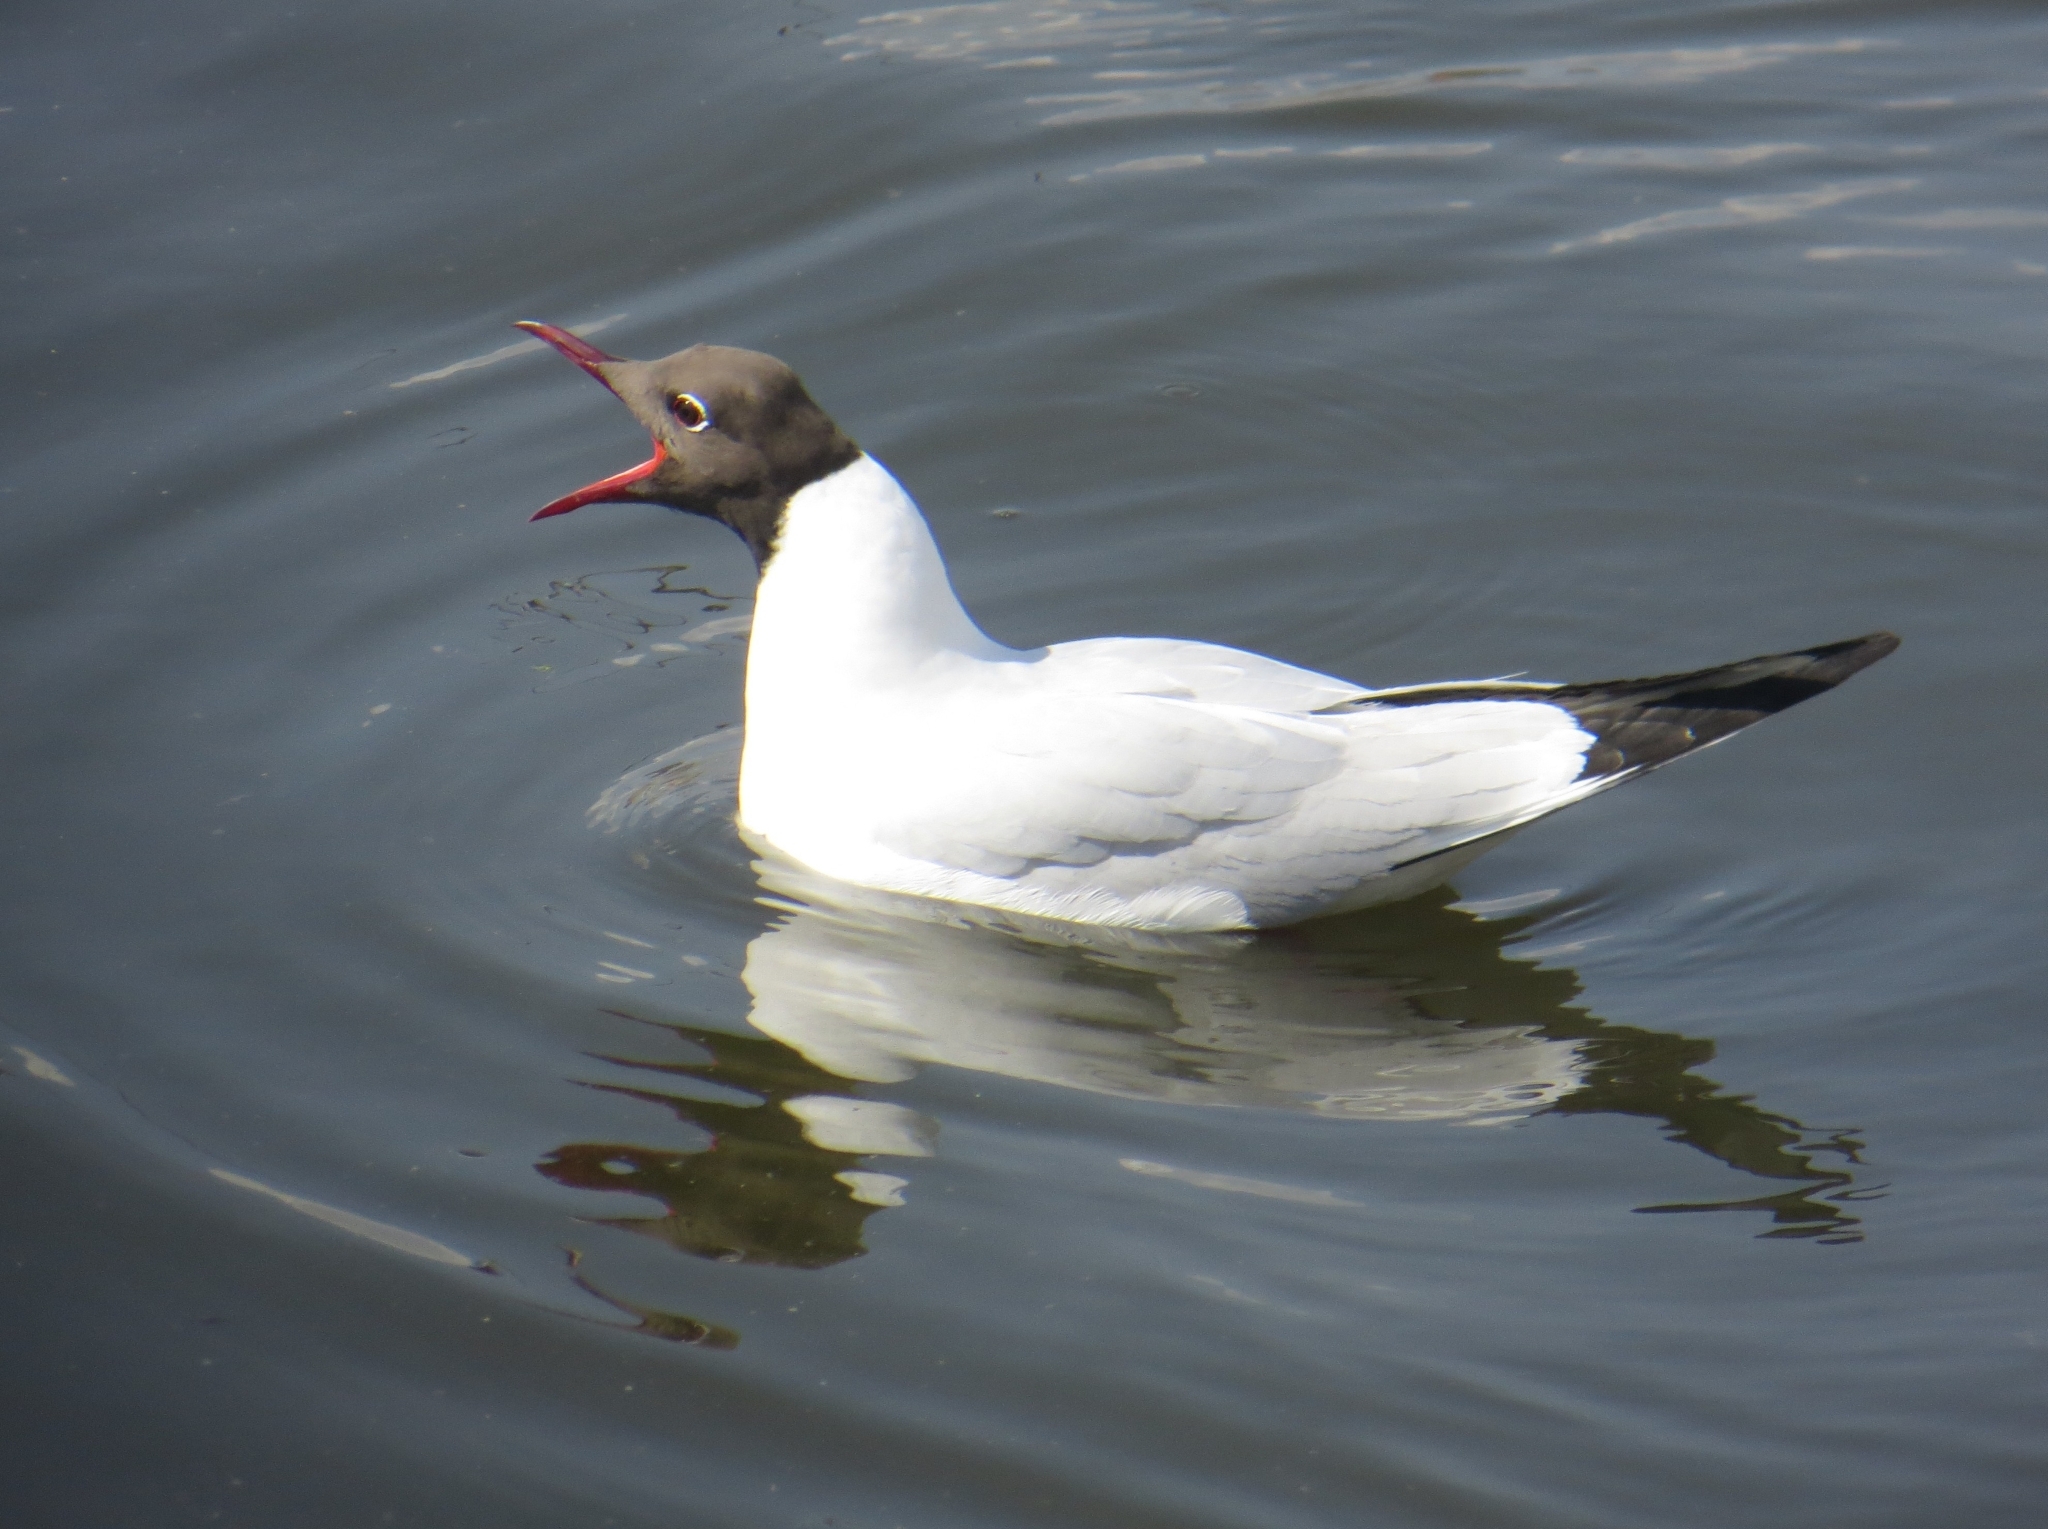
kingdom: Animalia
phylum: Chordata
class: Aves
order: Charadriiformes
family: Laridae
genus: Chroicocephalus
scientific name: Chroicocephalus ridibundus
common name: Black-headed gull
